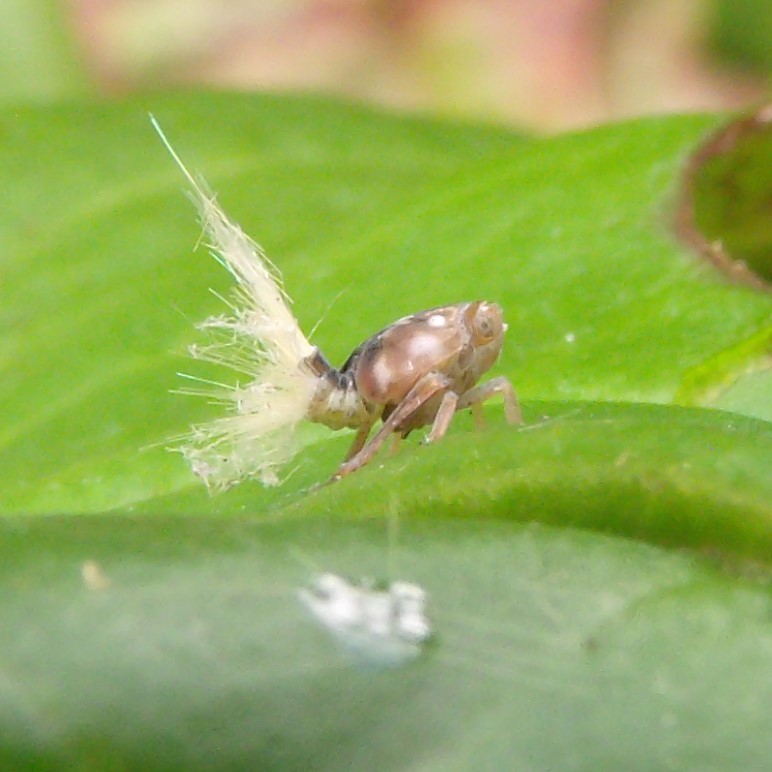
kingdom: Animalia
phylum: Arthropoda
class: Insecta
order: Hemiptera
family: Ricaniidae
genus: Scolypopa
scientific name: Scolypopa australis
